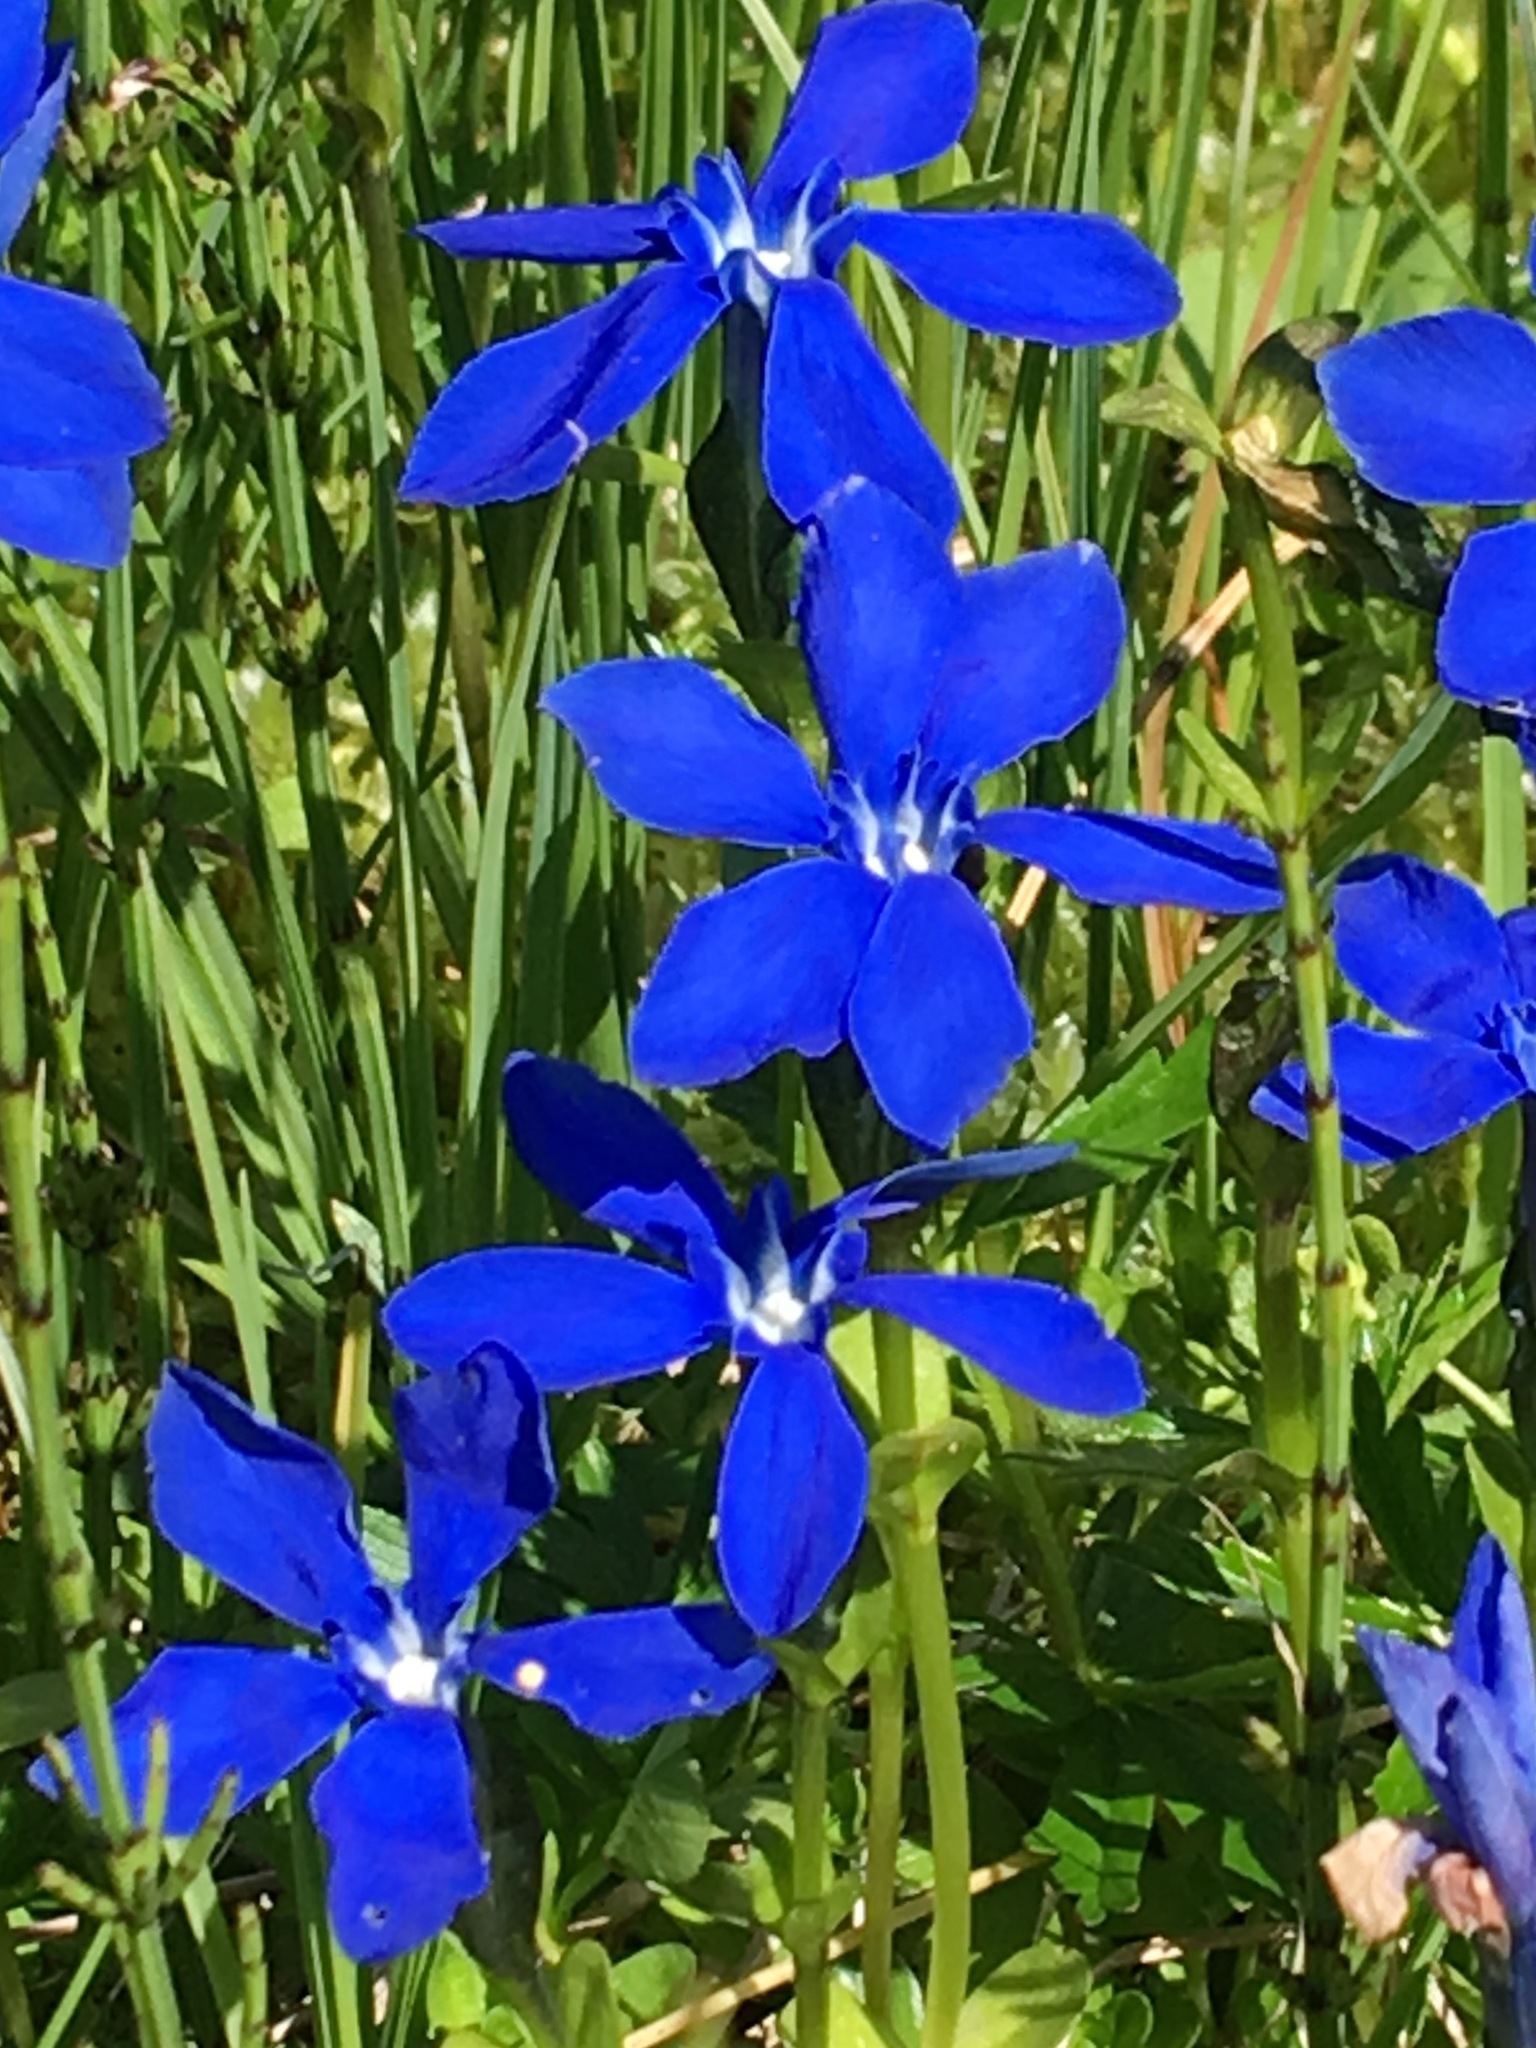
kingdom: Plantae
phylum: Tracheophyta
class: Magnoliopsida
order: Gentianales
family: Gentianaceae
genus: Gentiana
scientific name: Gentiana bavarica
